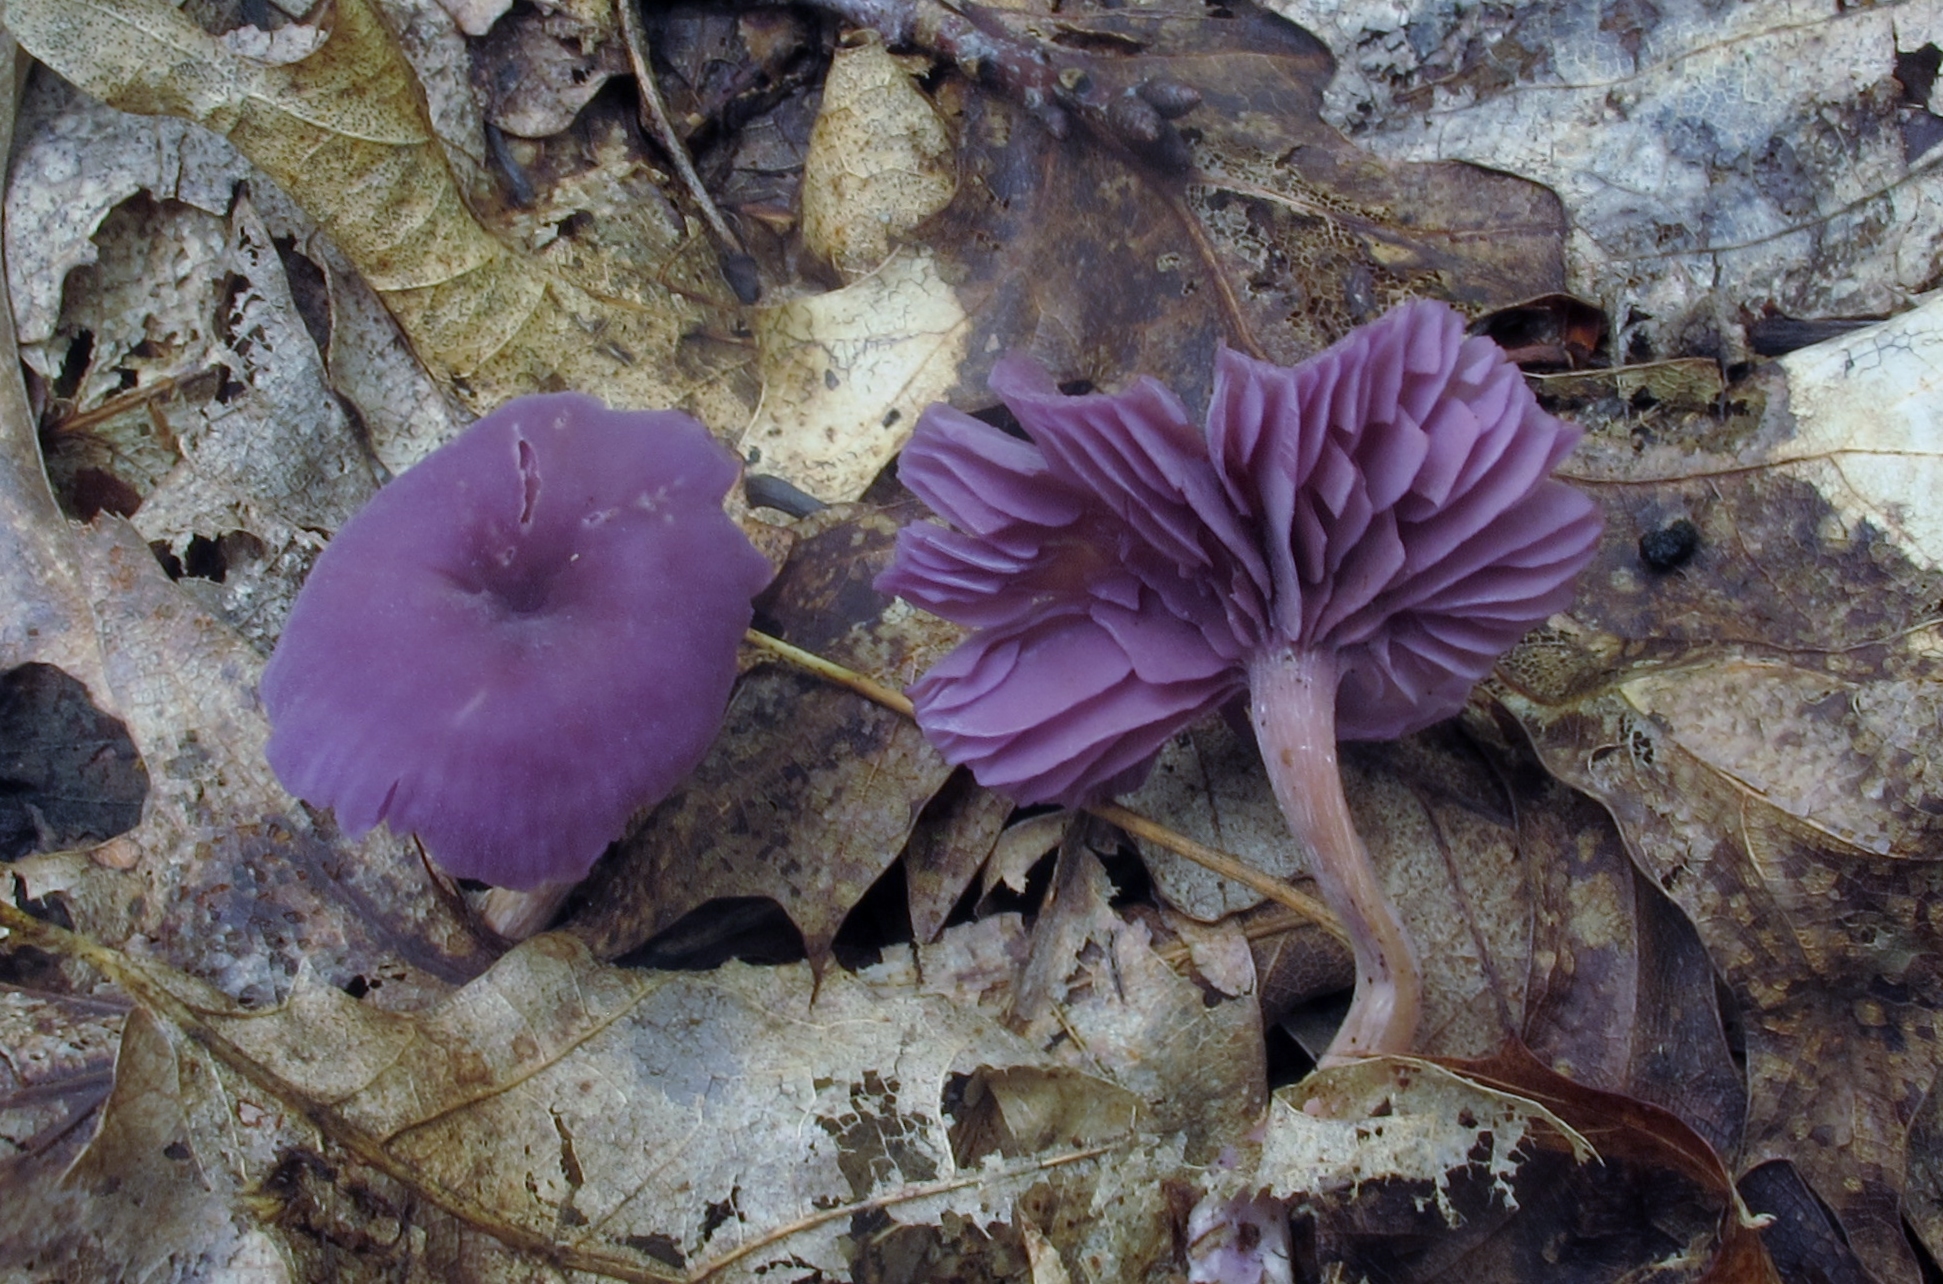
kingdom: Fungi
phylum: Basidiomycota
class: Agaricomycetes
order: Agaricales
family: Hydnangiaceae
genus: Laccaria
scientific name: Laccaria amethystina
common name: Amethyst deceiver
